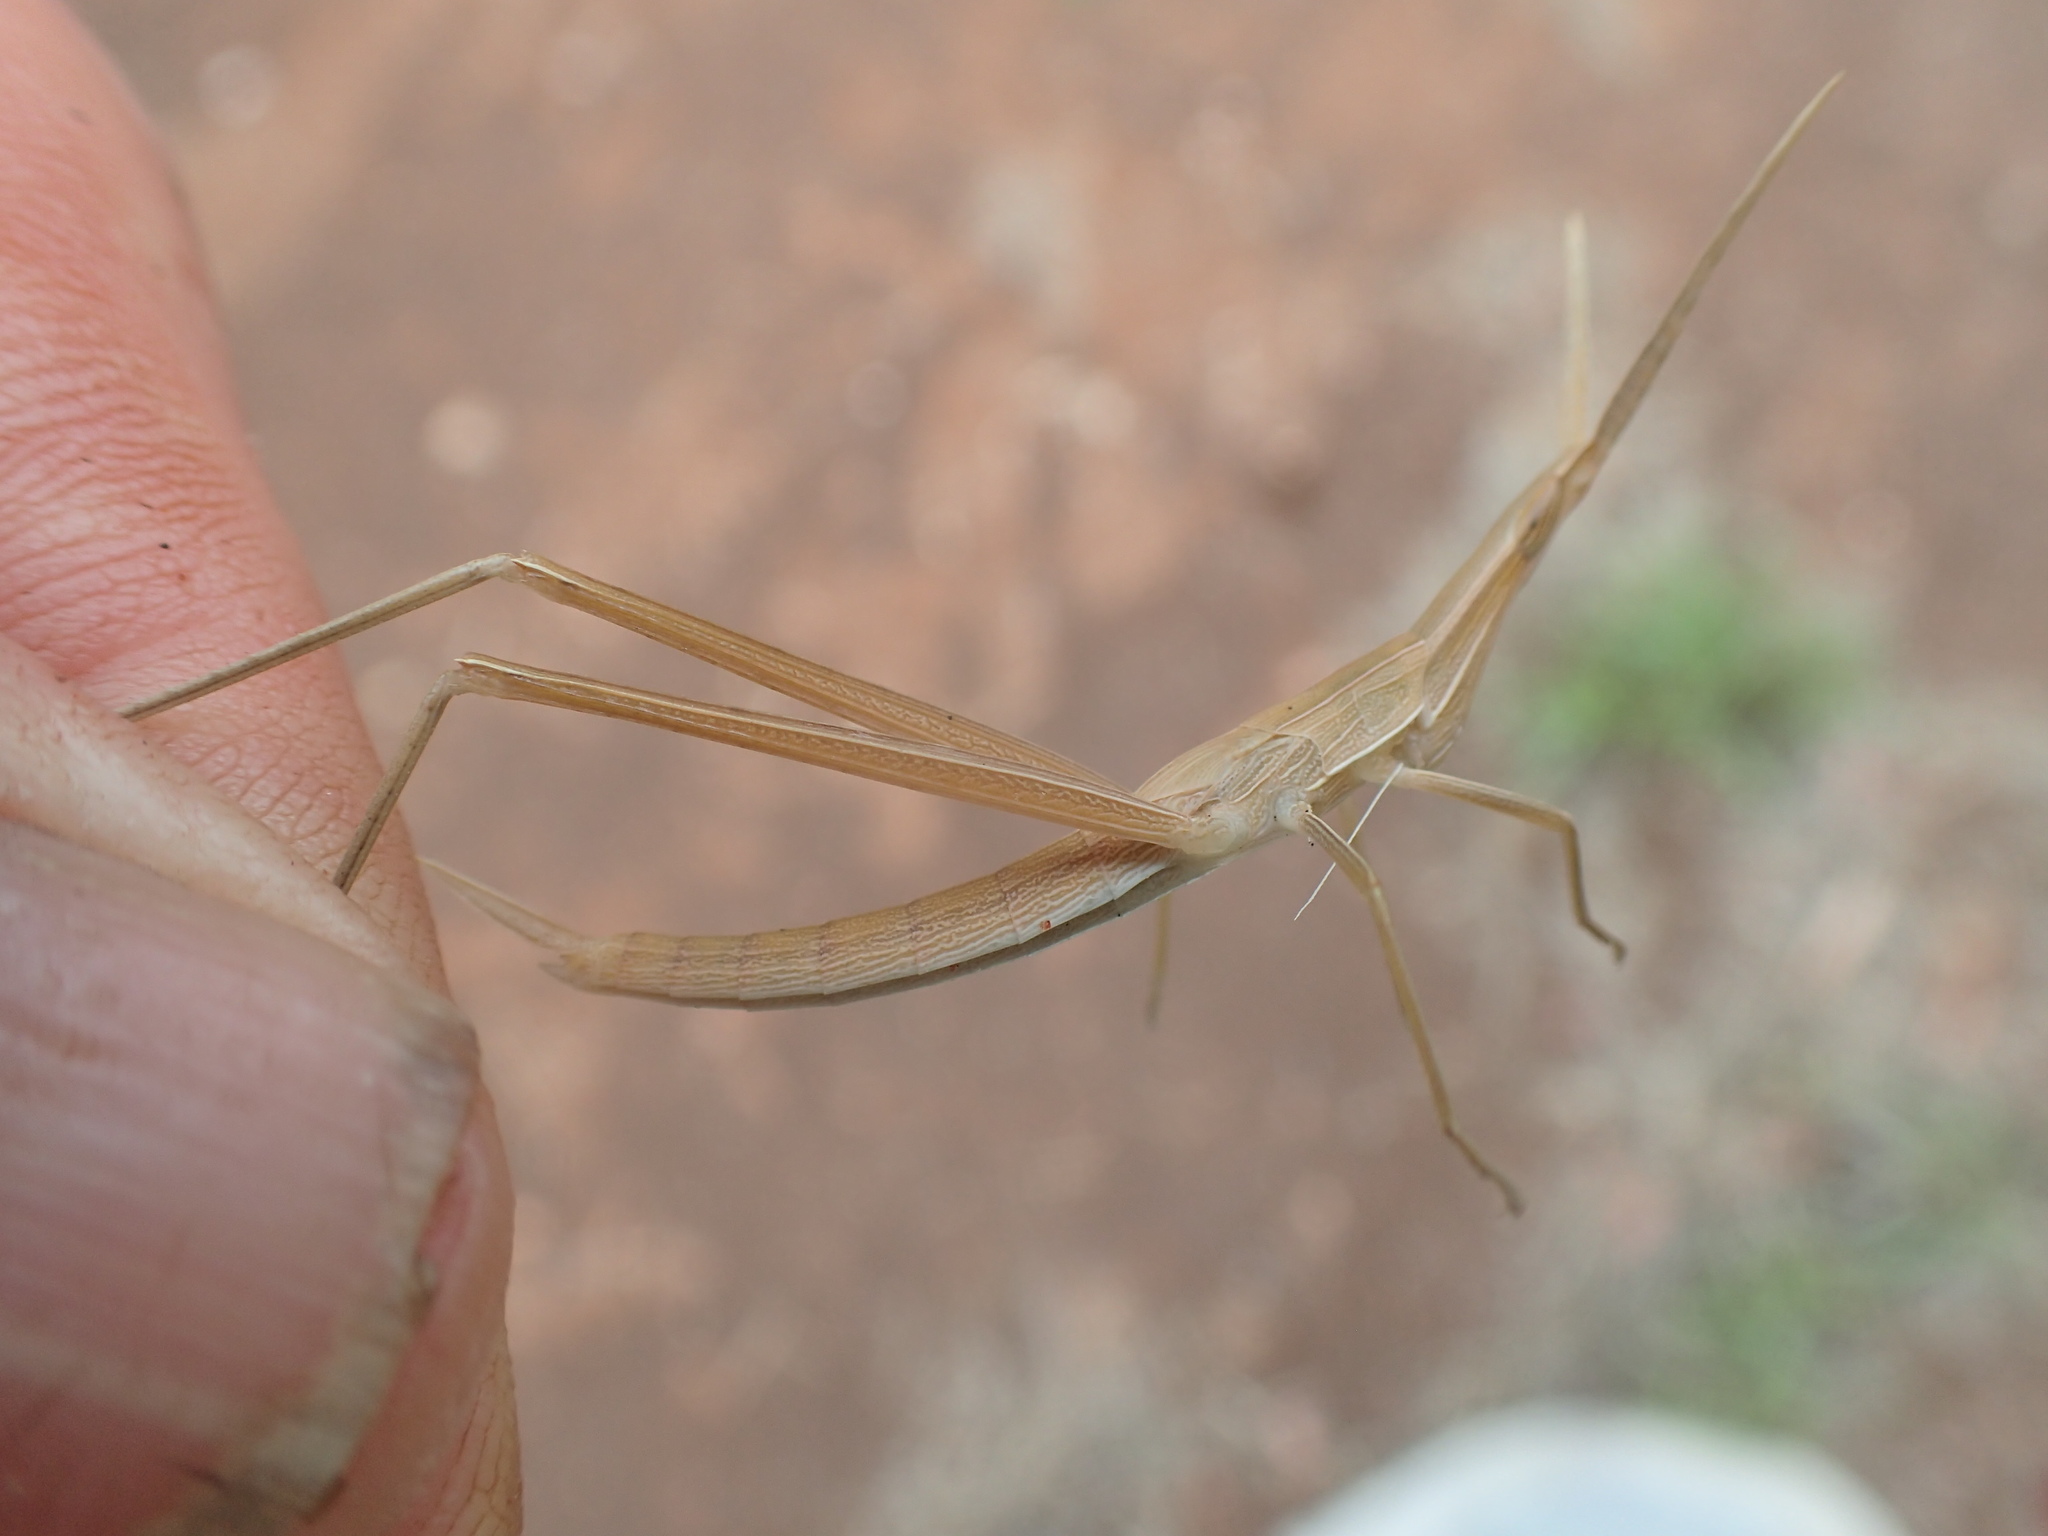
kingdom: Animalia
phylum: Arthropoda
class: Insecta
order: Orthoptera
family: Acrididae
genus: Acrida
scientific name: Acrida conica
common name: Giant green slantface
